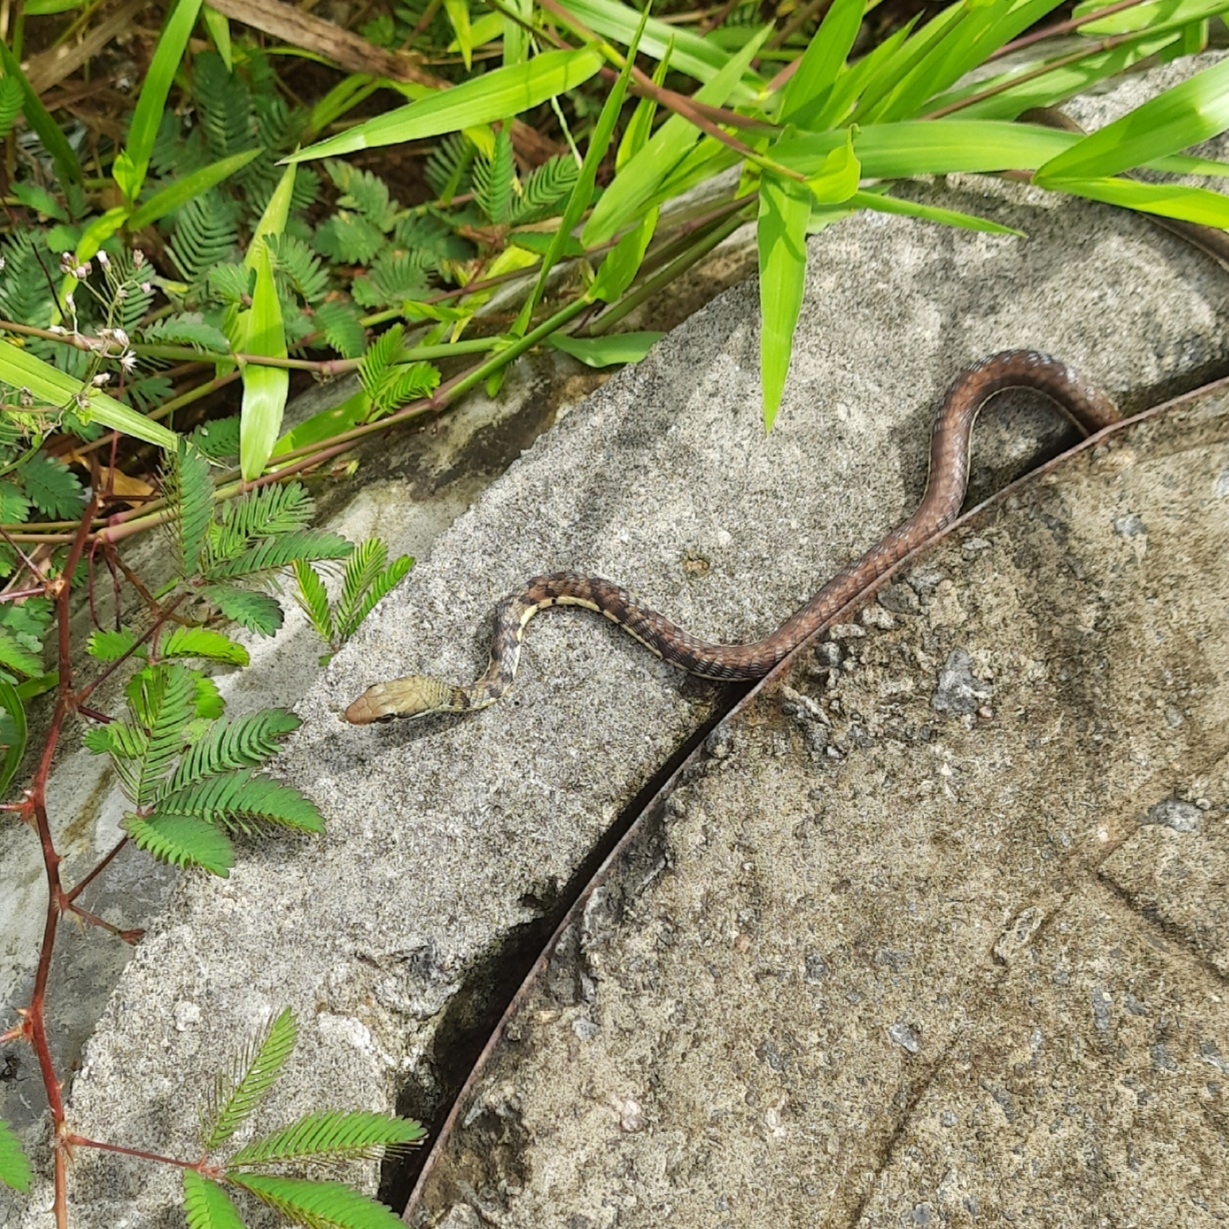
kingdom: Animalia
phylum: Chordata
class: Squamata
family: Colubridae
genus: Dendrelaphis
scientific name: Dendrelaphis chairecacos
